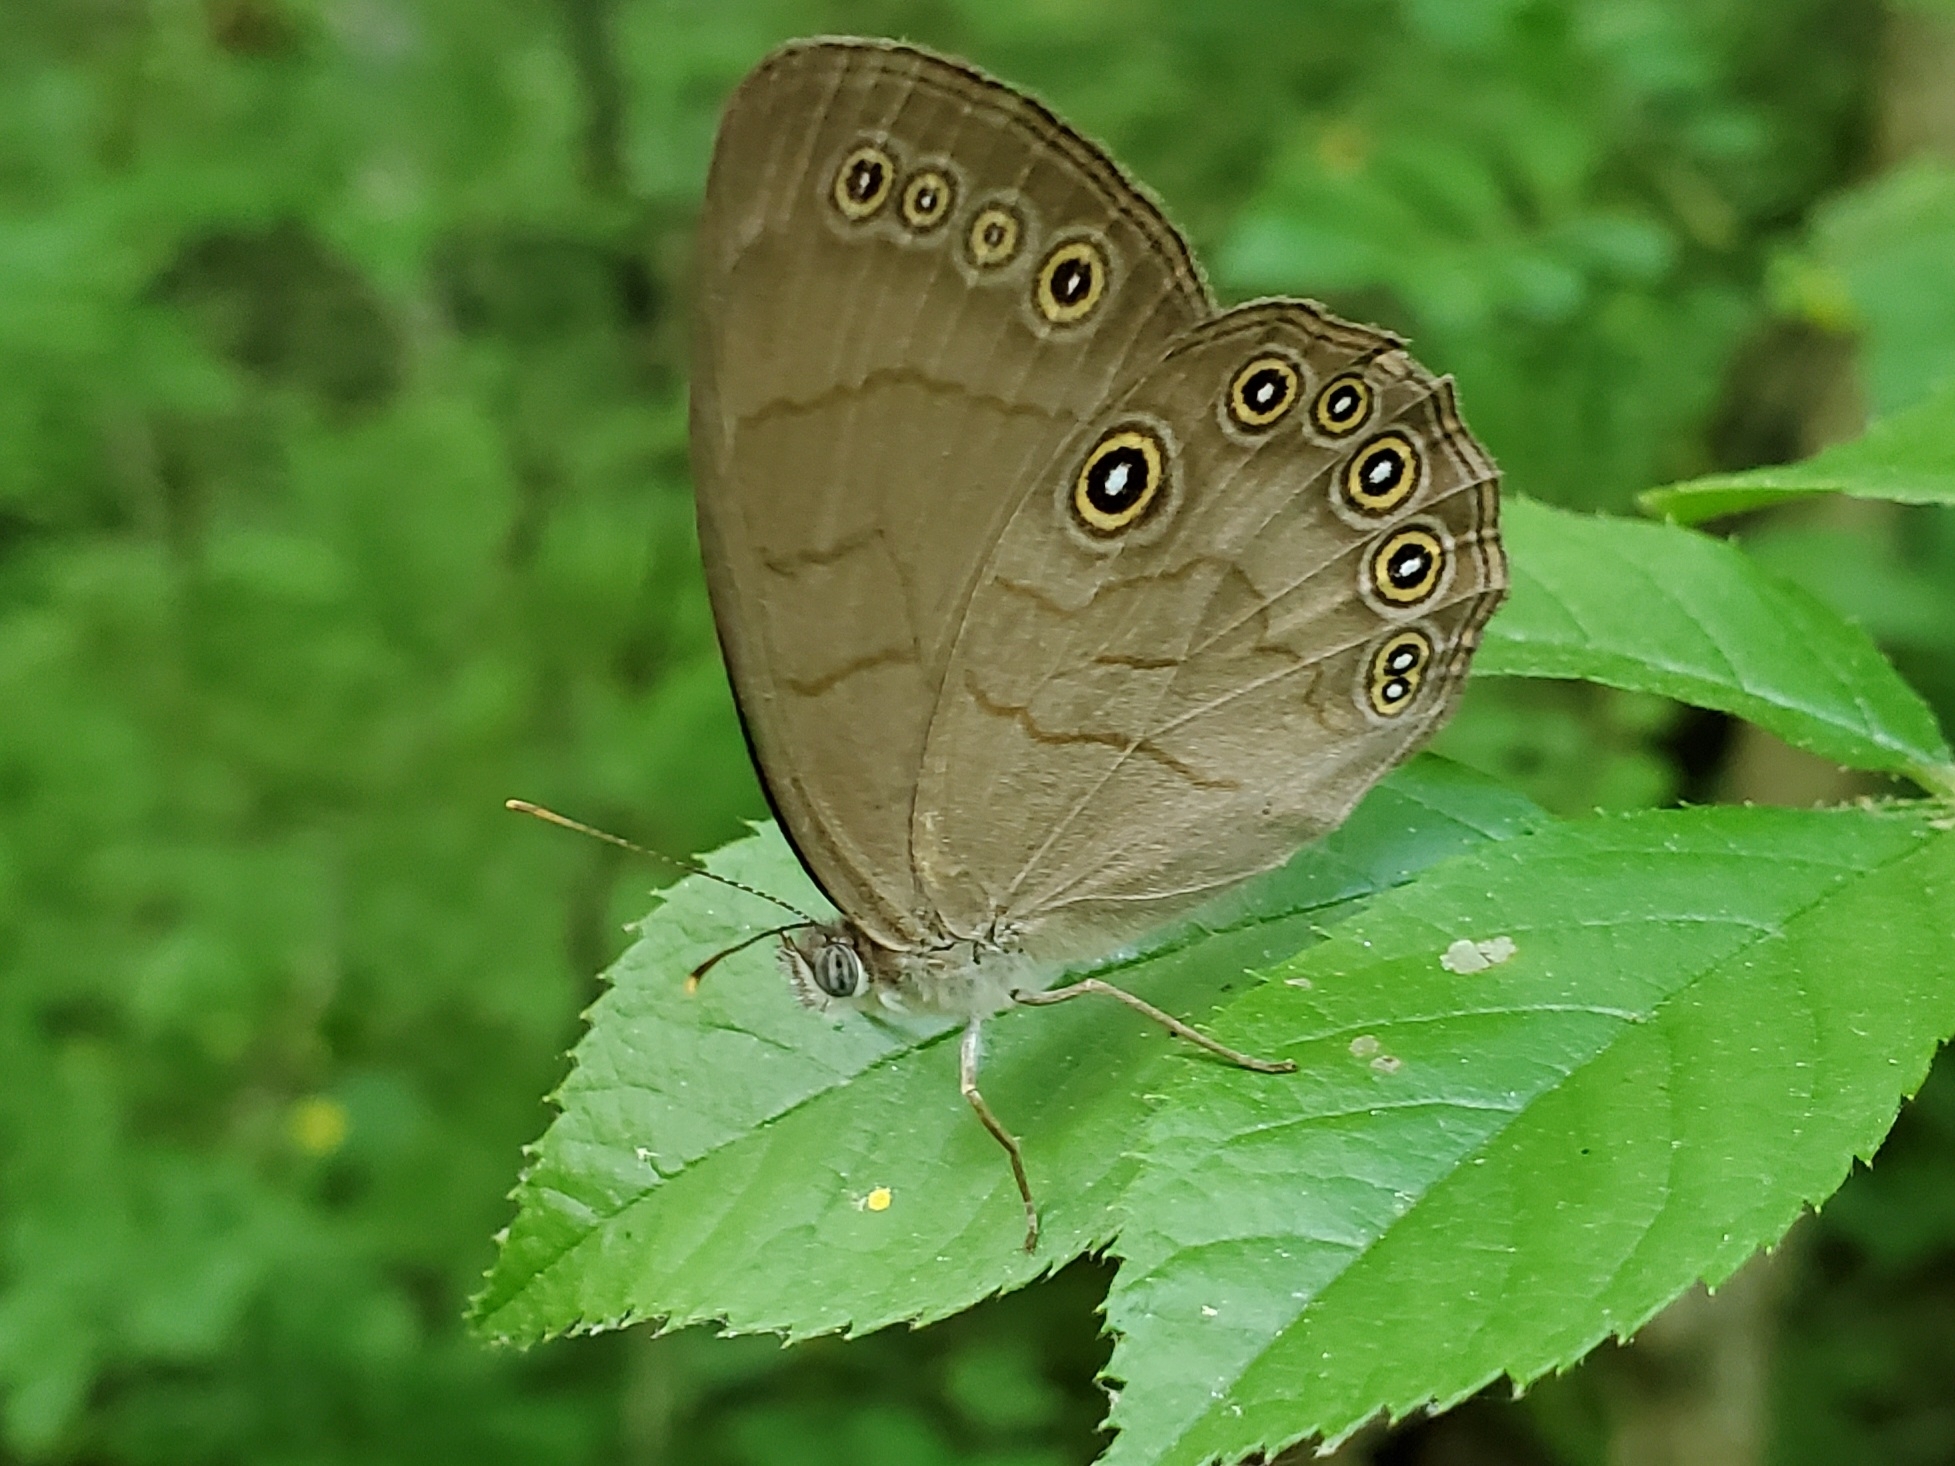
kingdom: Animalia
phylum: Arthropoda
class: Insecta
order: Lepidoptera
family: Nymphalidae
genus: Lethe
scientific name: Lethe eurydice
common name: Eyed brown
